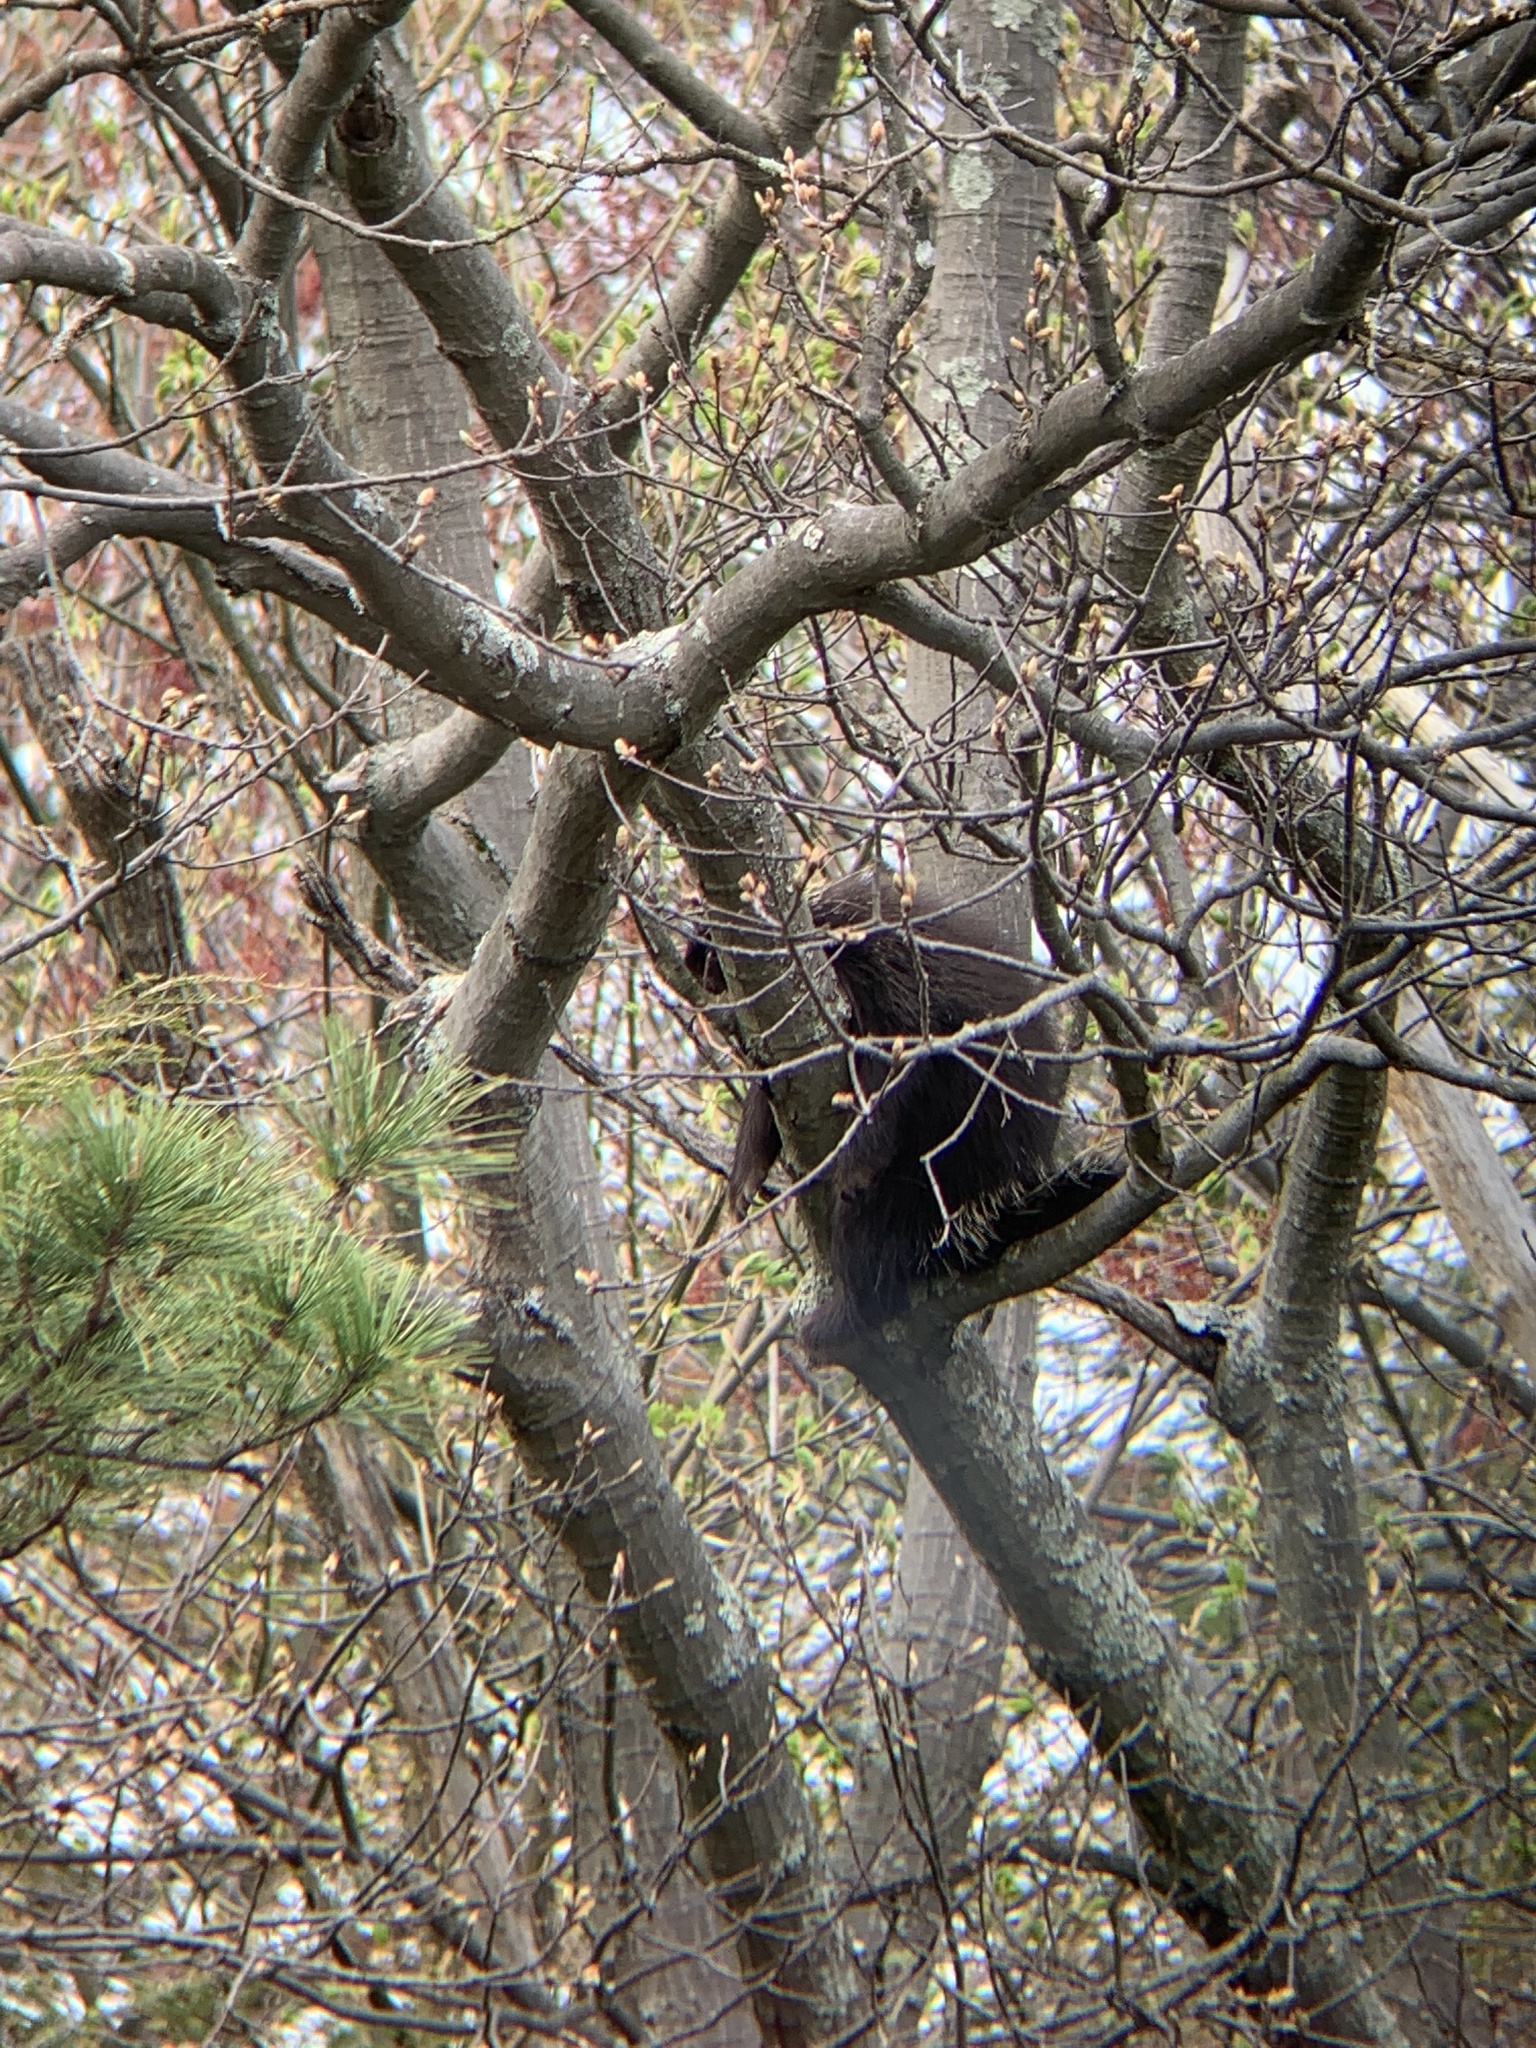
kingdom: Animalia
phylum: Chordata
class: Mammalia
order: Rodentia
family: Erethizontidae
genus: Erethizon
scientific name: Erethizon dorsatus
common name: North american porcupine
